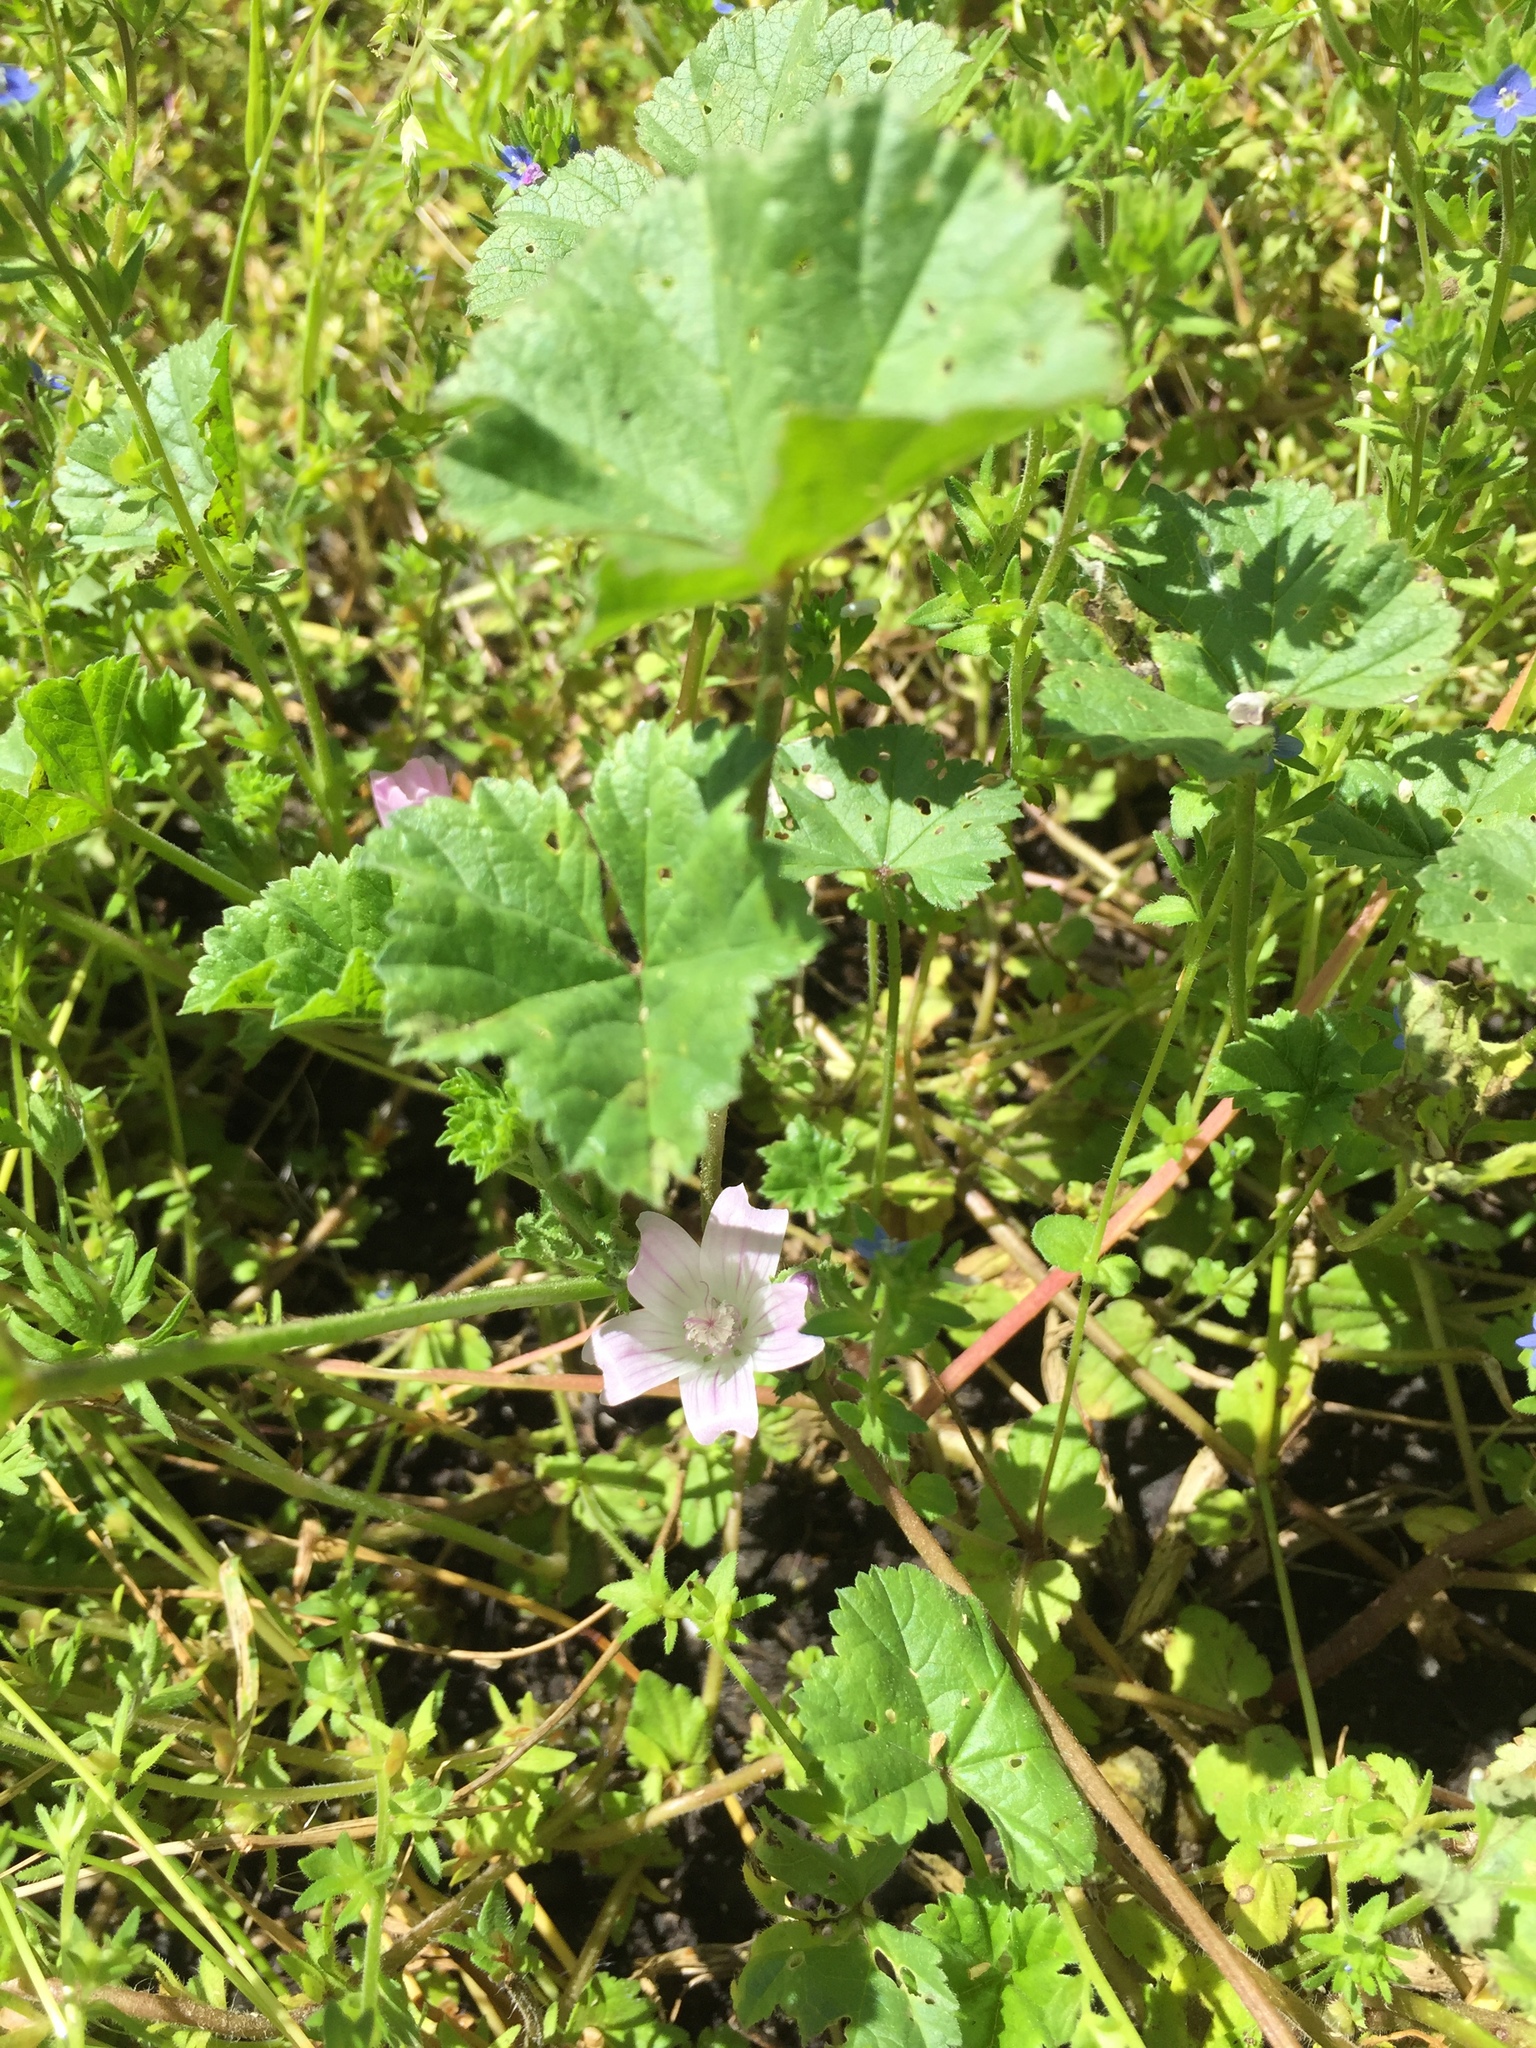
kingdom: Plantae
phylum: Tracheophyta
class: Magnoliopsida
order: Malvales
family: Malvaceae
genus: Malva
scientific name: Malva neglecta
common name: Common mallow
